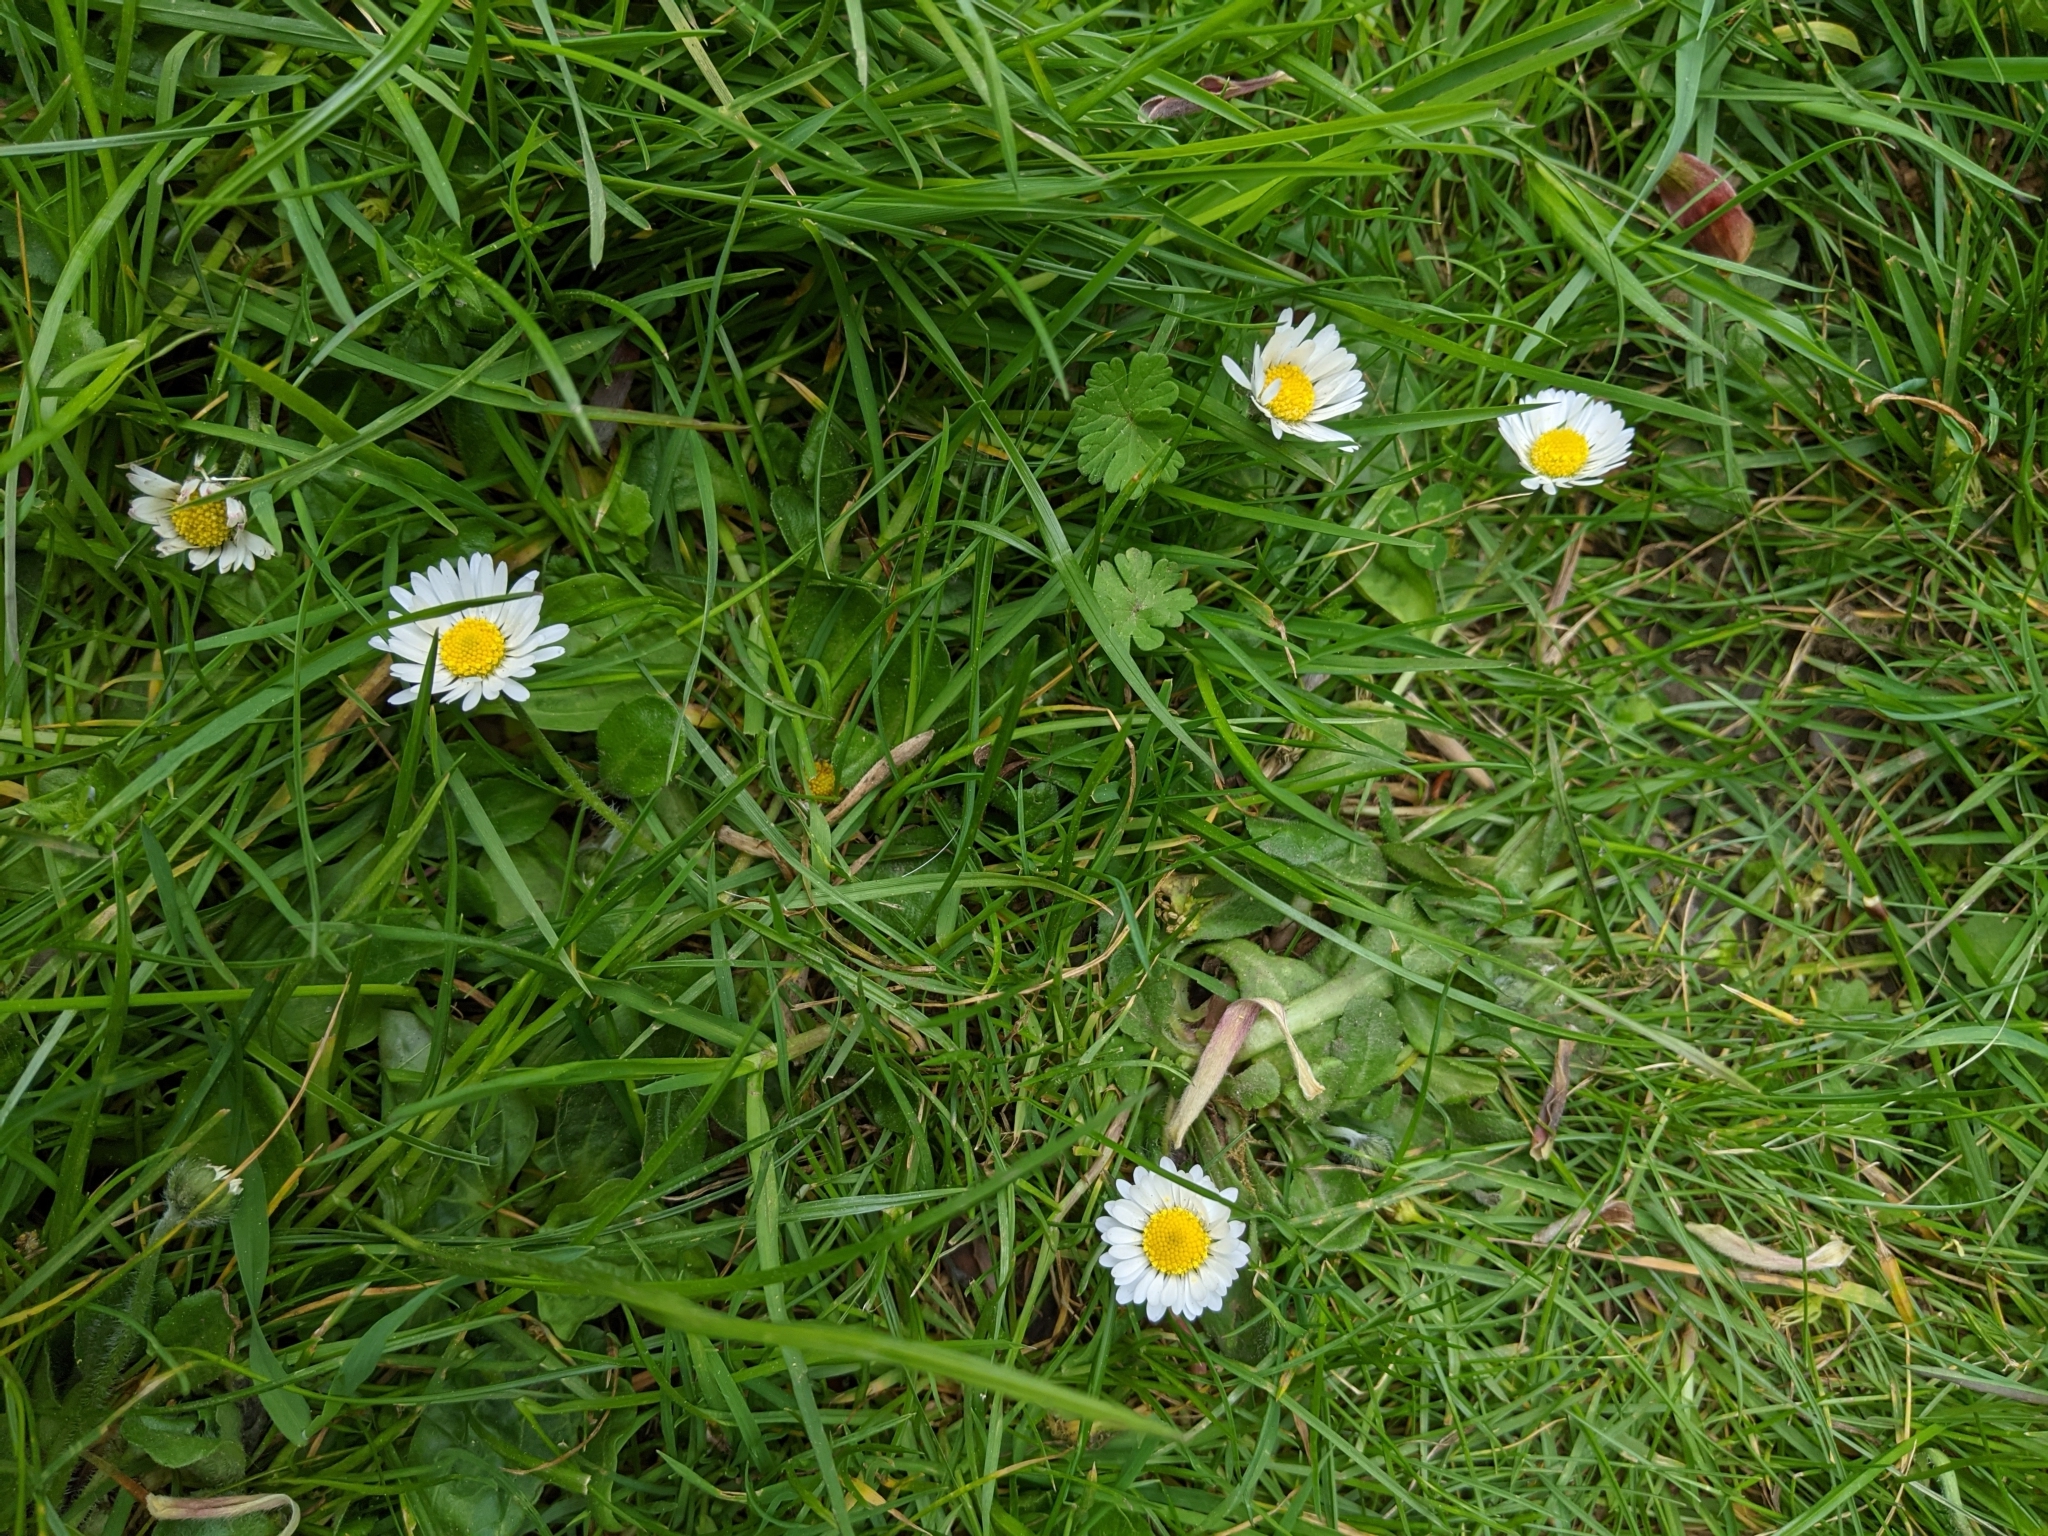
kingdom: Plantae
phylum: Tracheophyta
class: Magnoliopsida
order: Asterales
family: Asteraceae
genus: Bellis
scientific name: Bellis perennis
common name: Lawndaisy
